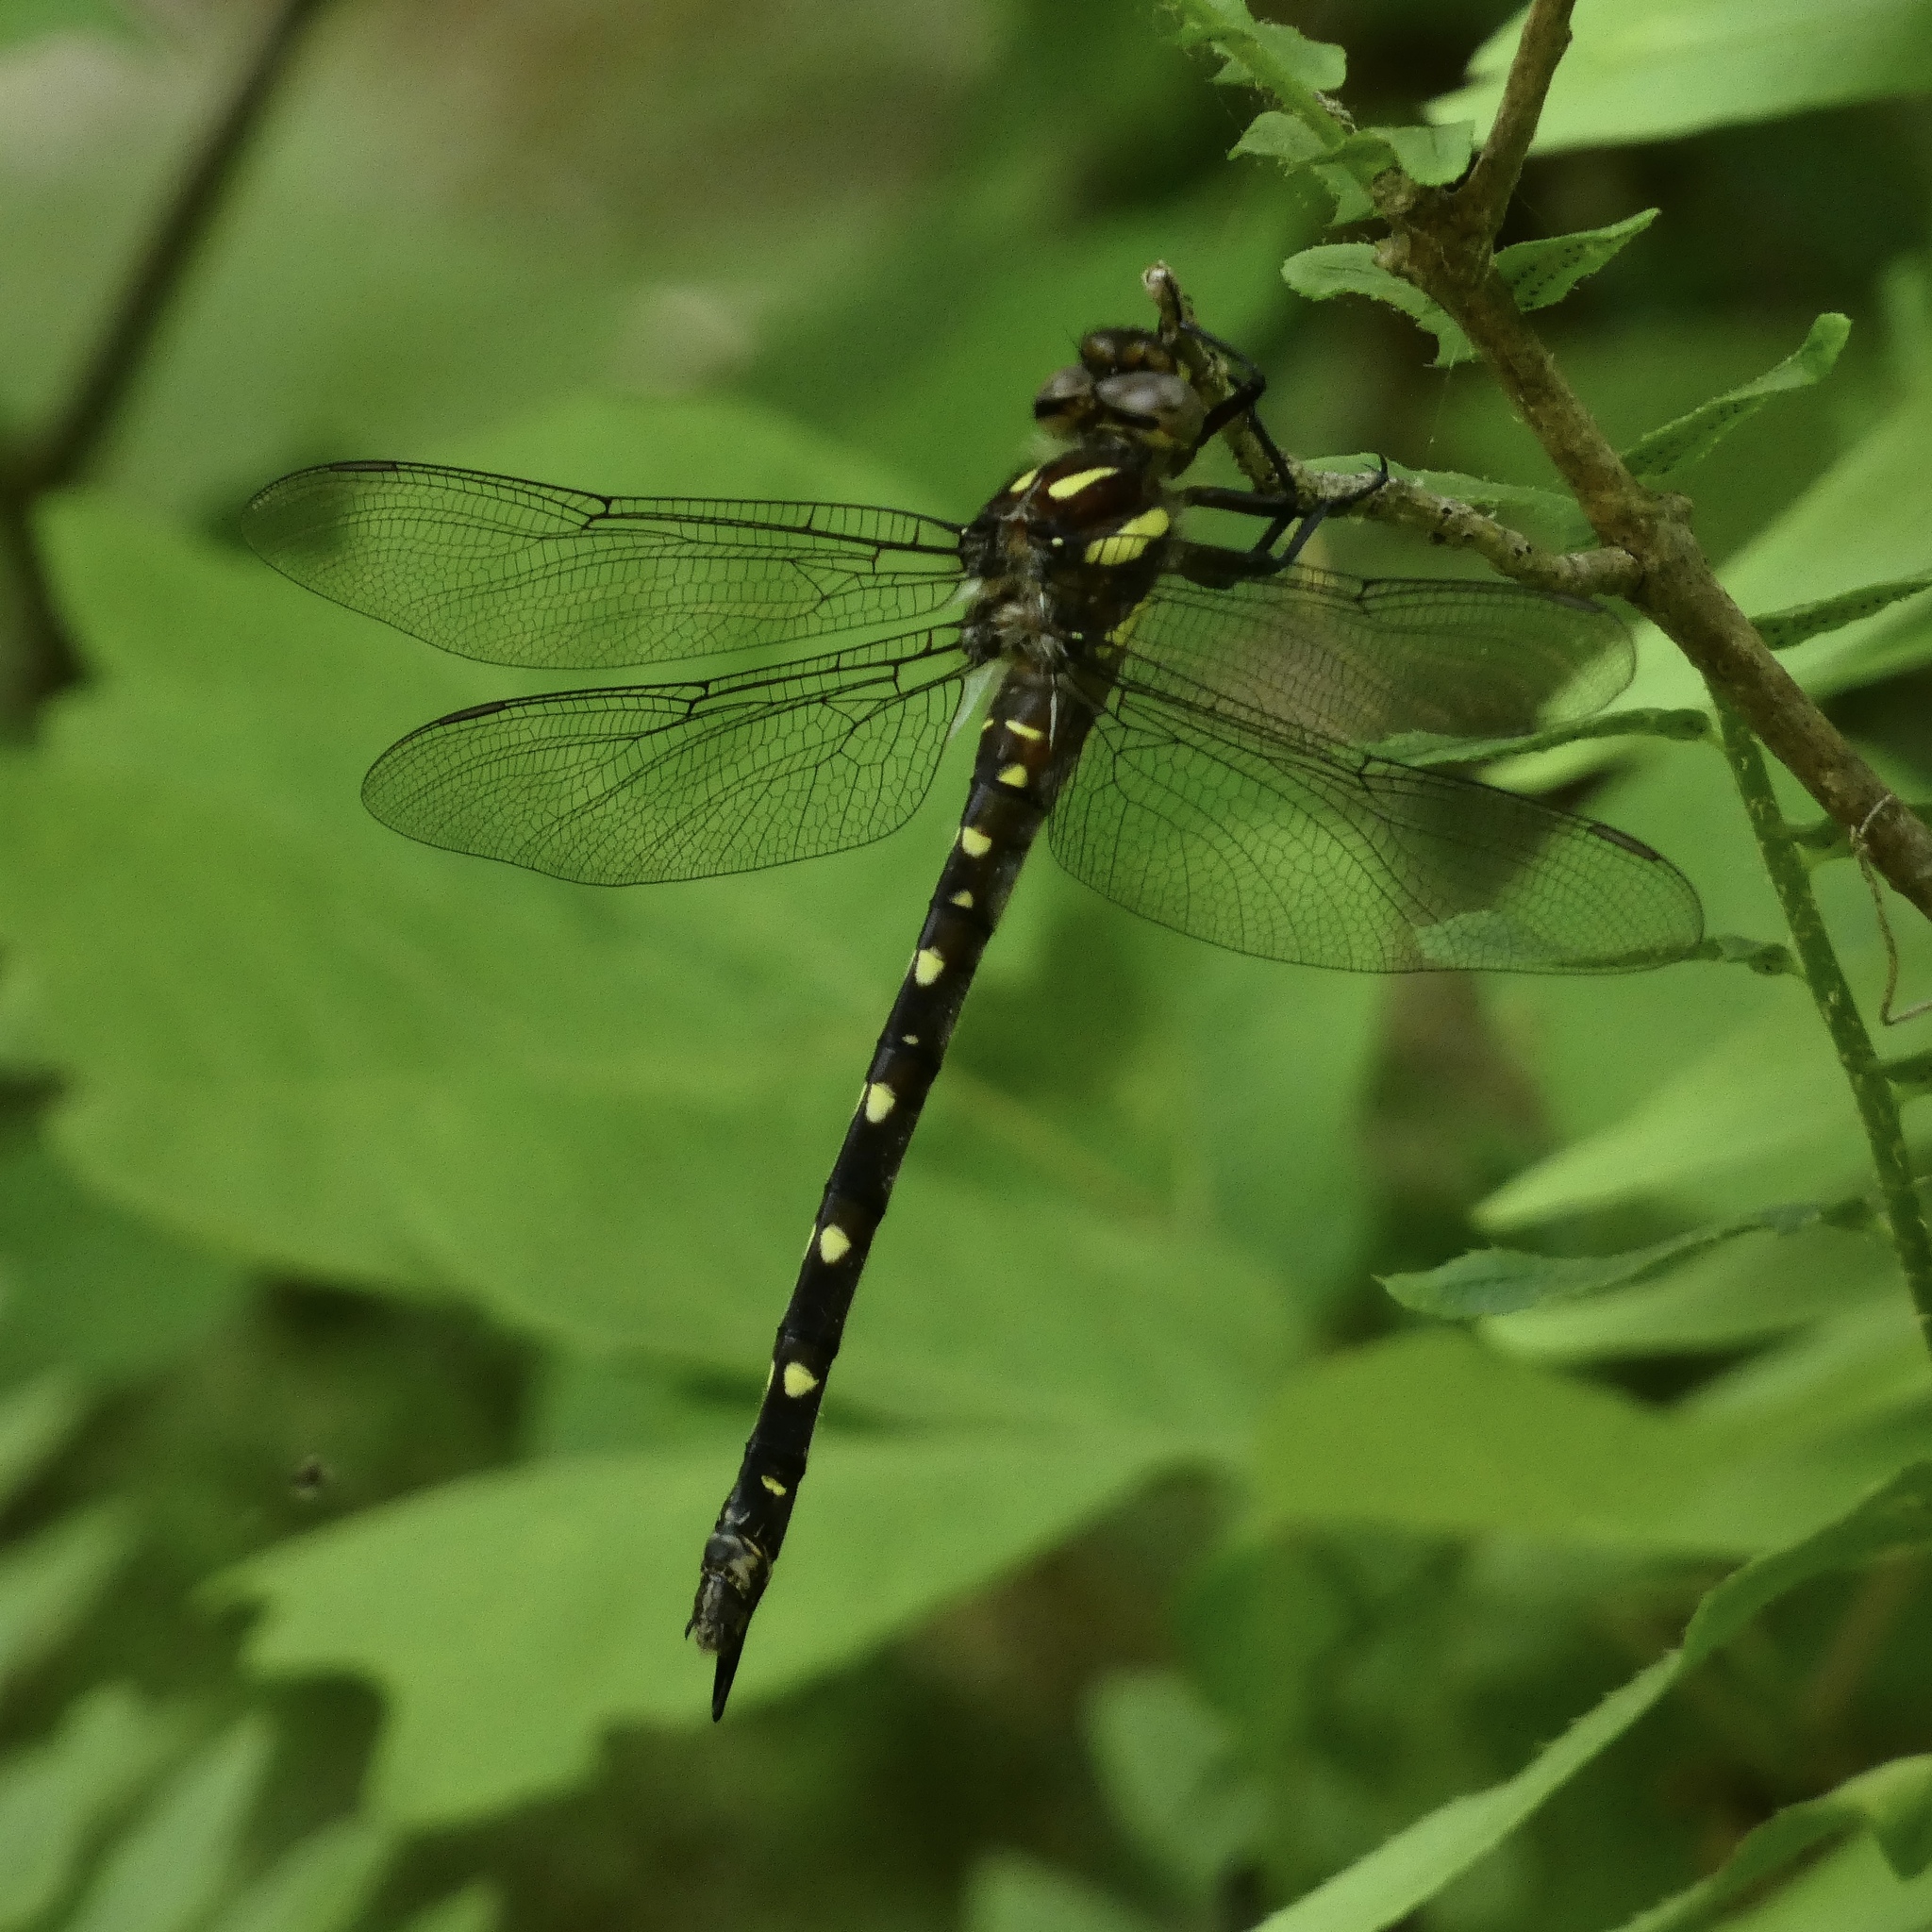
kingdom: Animalia
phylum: Arthropoda
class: Insecta
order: Odonata
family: Cordulegastridae
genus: Cordulegaster
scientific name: Cordulegaster maculata
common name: Twin-spotted spiketail
